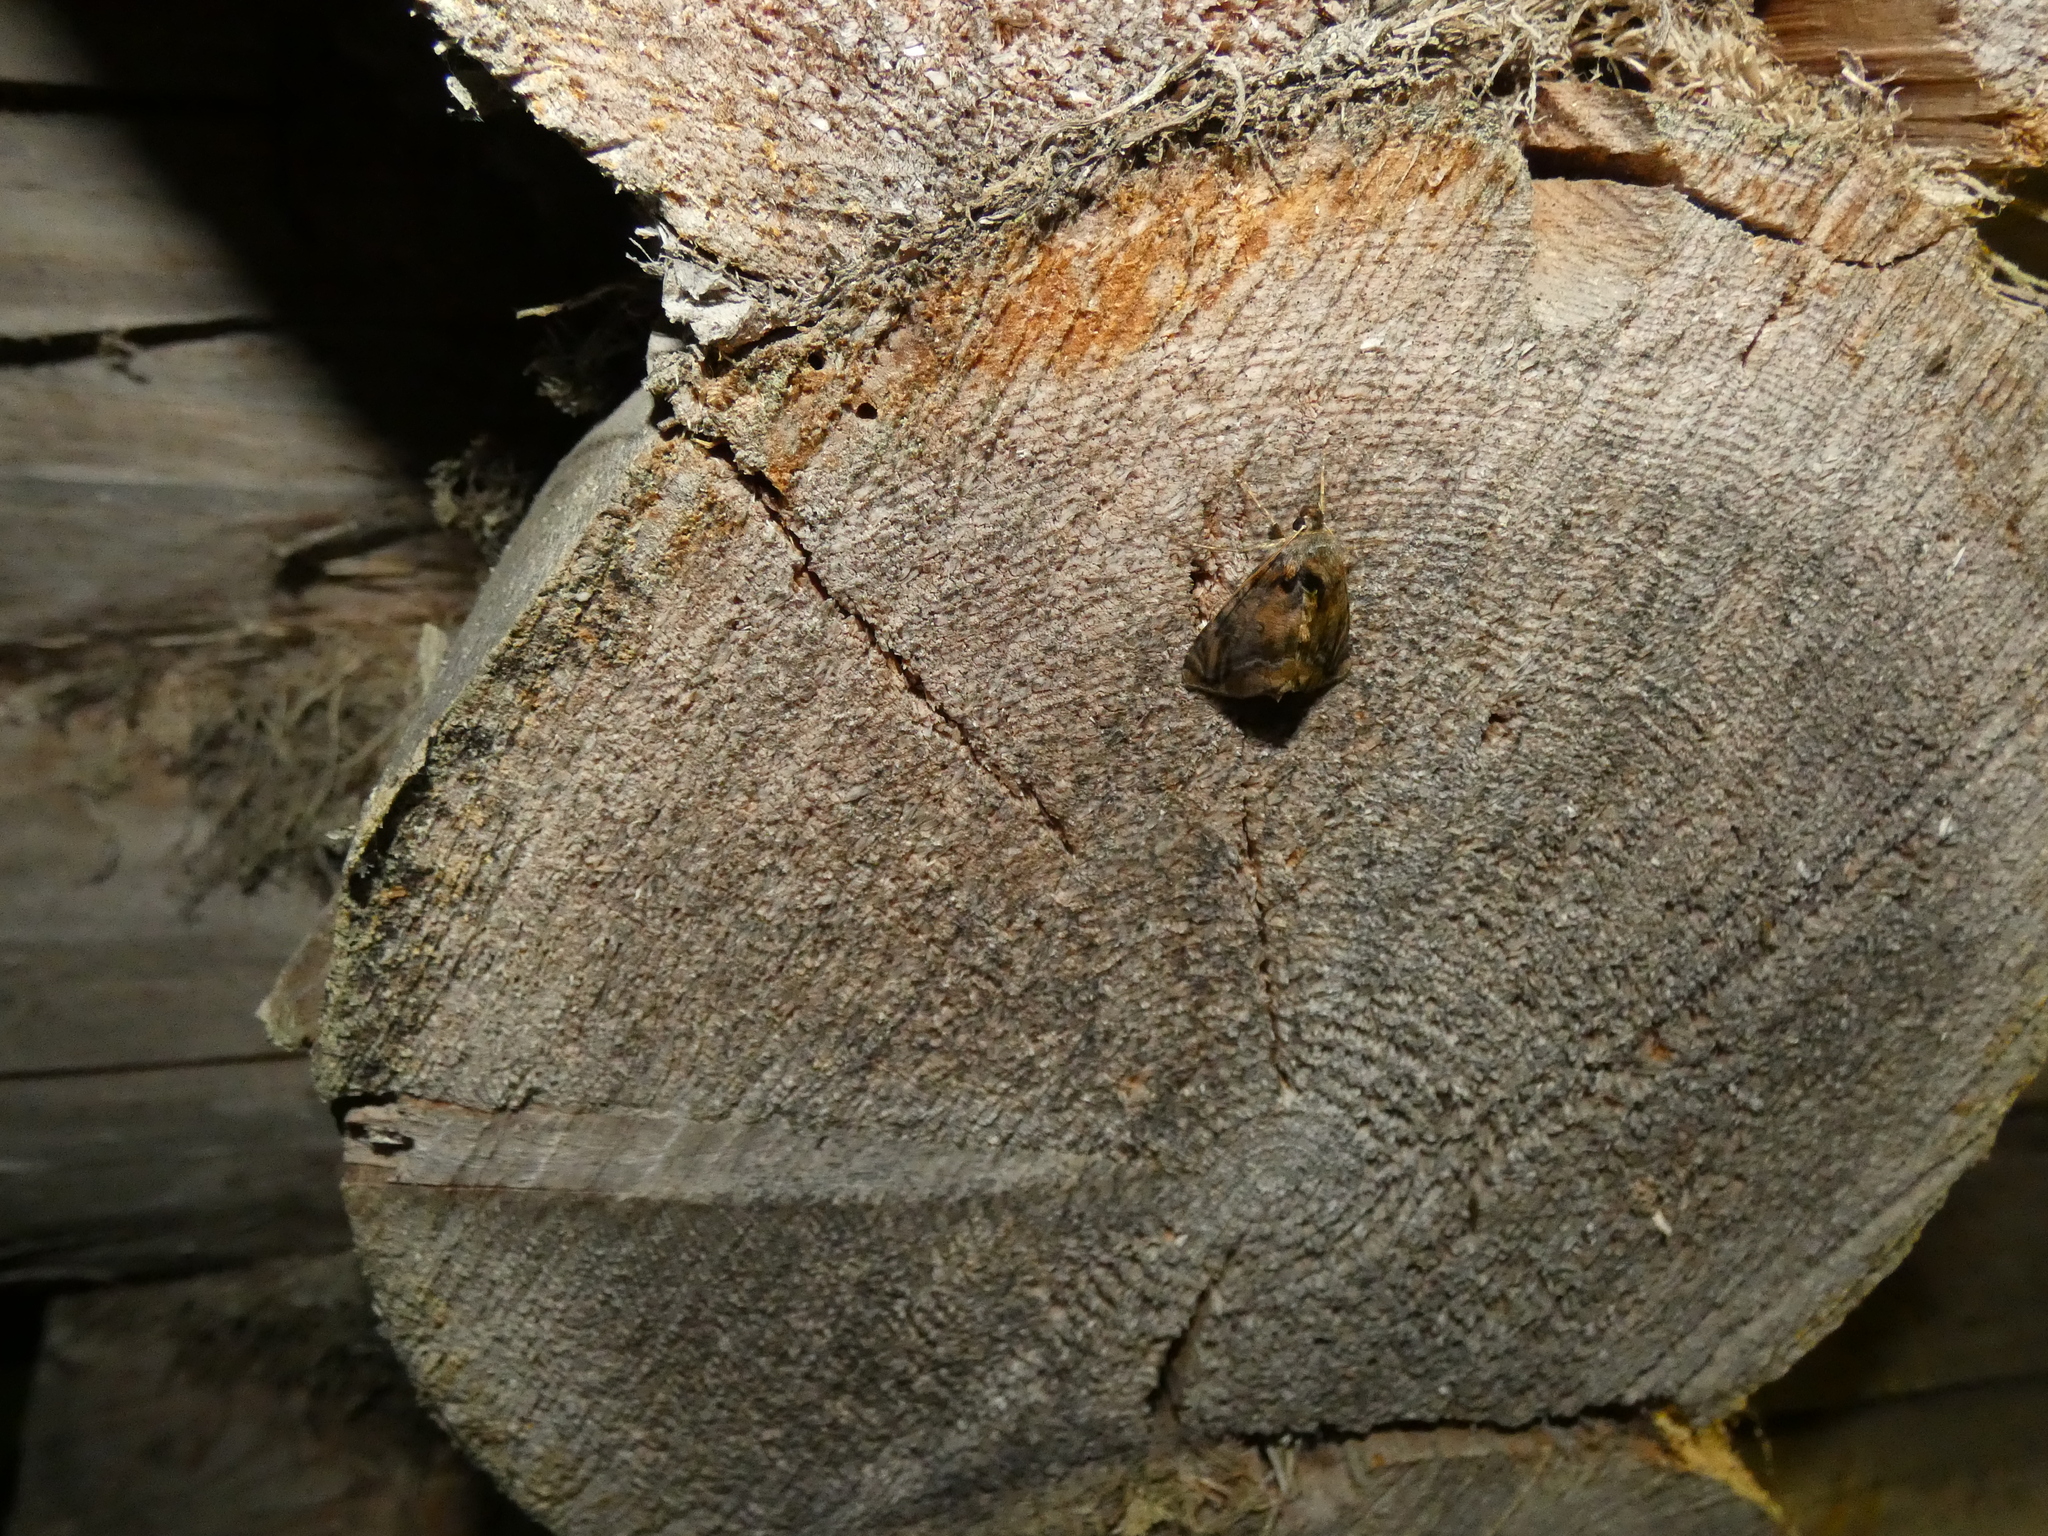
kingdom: Animalia
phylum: Arthropoda
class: Insecta
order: Lepidoptera
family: Noctuidae
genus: Lamprotes
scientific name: Lamprotes caureum
